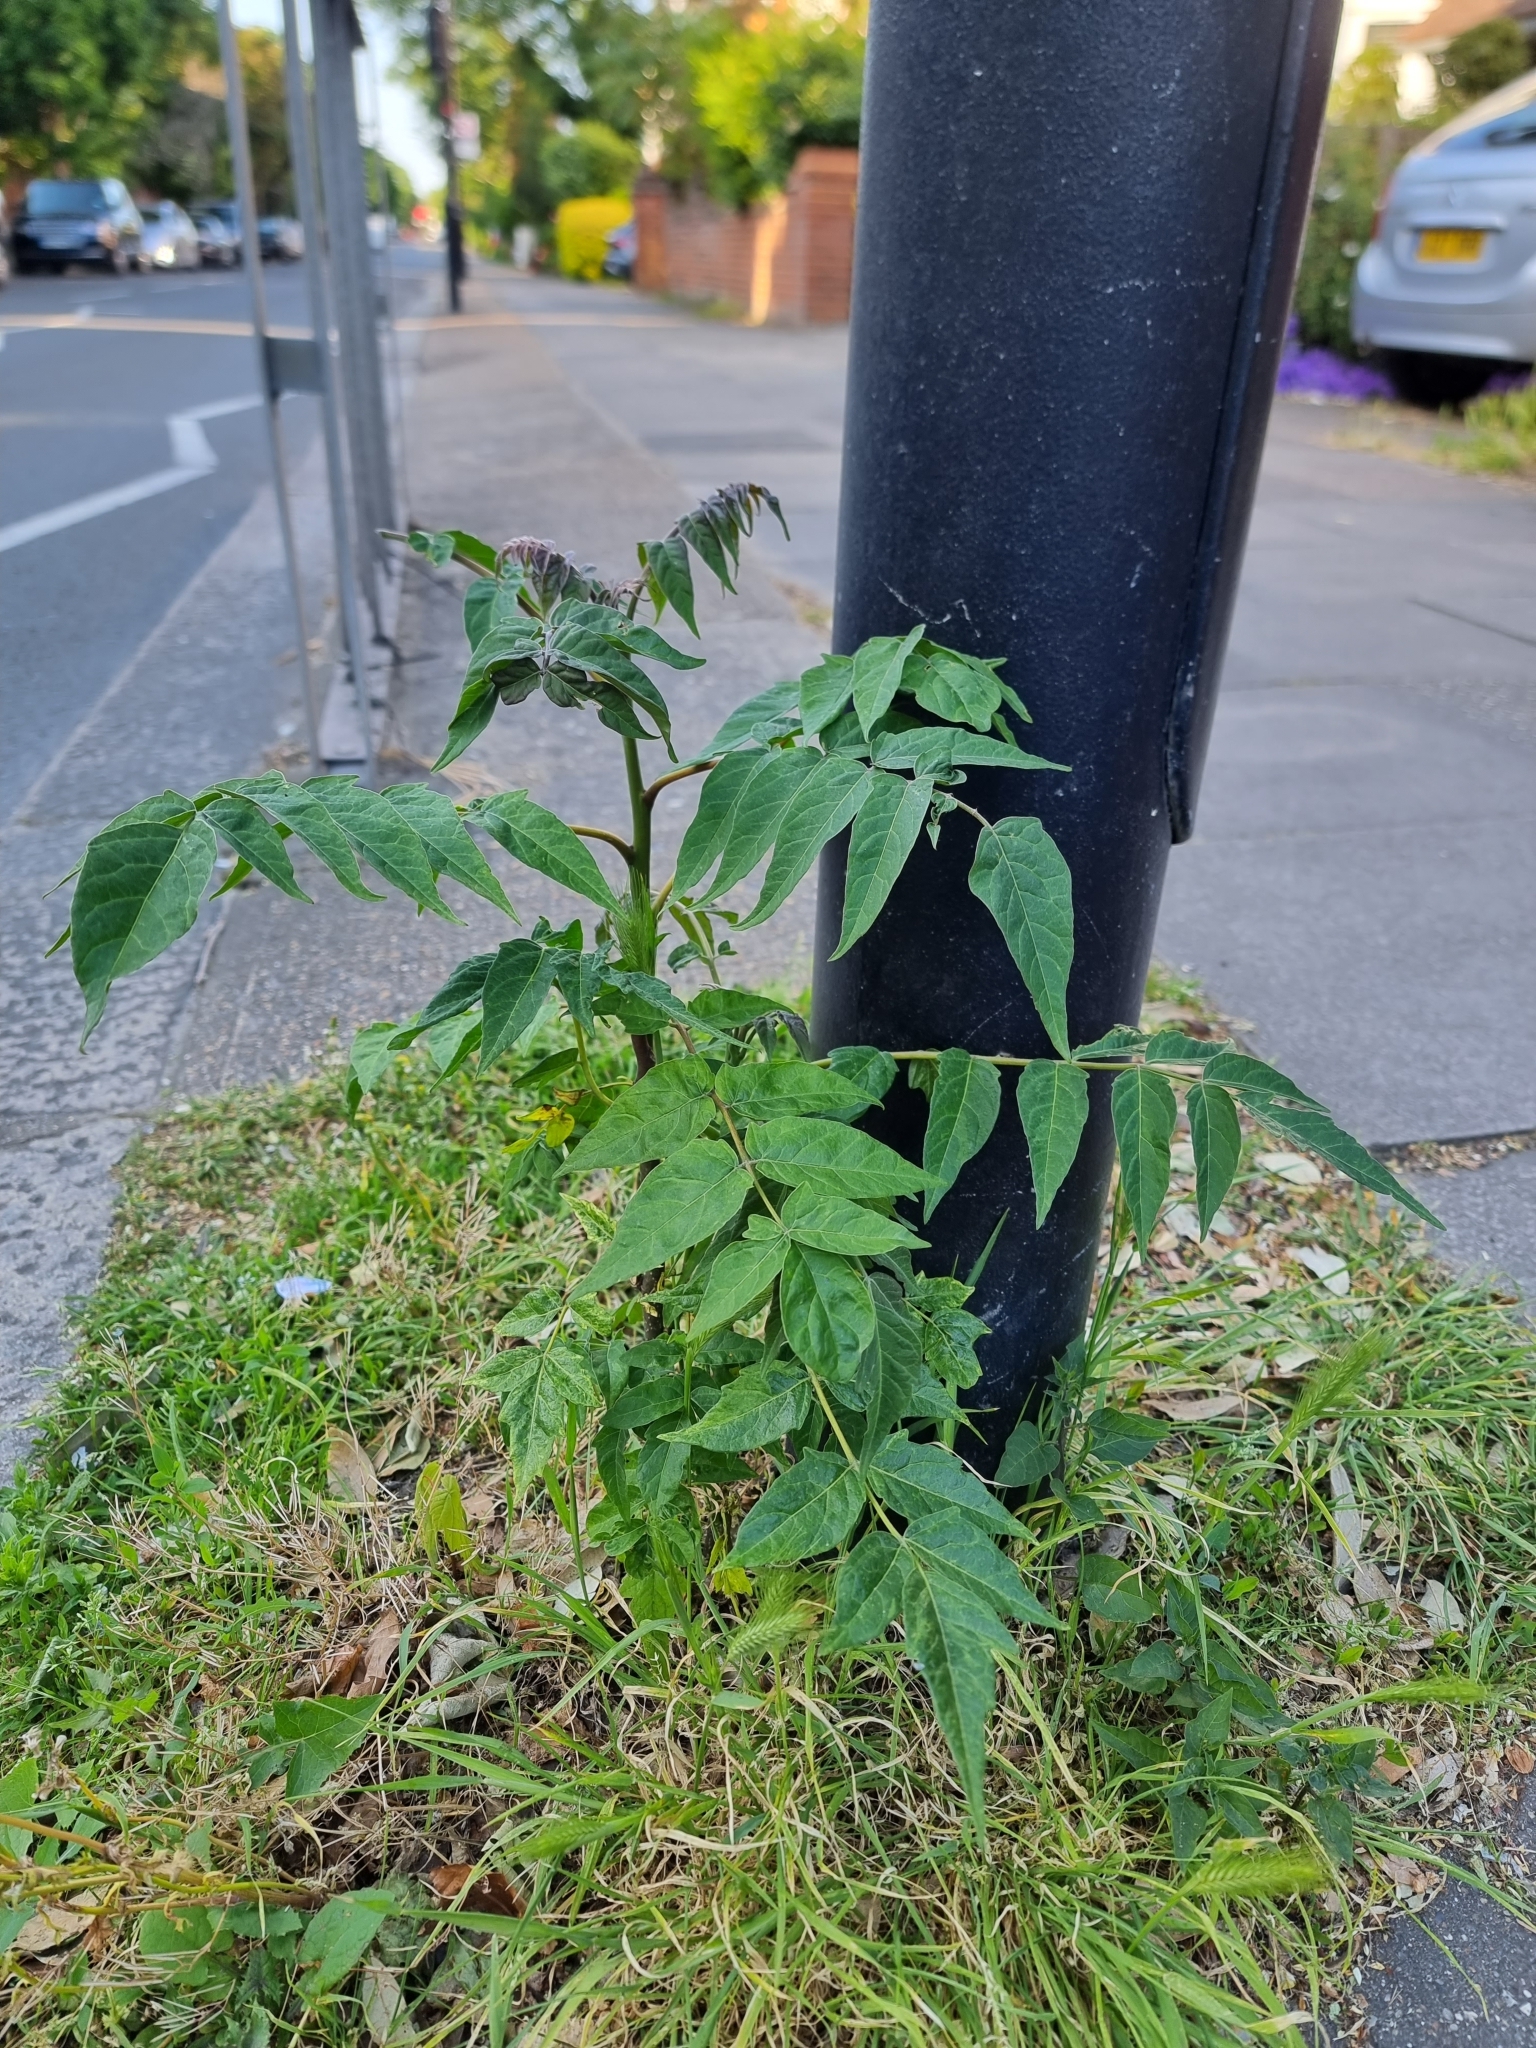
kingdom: Plantae
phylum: Tracheophyta
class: Magnoliopsida
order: Sapindales
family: Simaroubaceae
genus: Ailanthus
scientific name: Ailanthus altissima
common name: Tree-of-heaven
